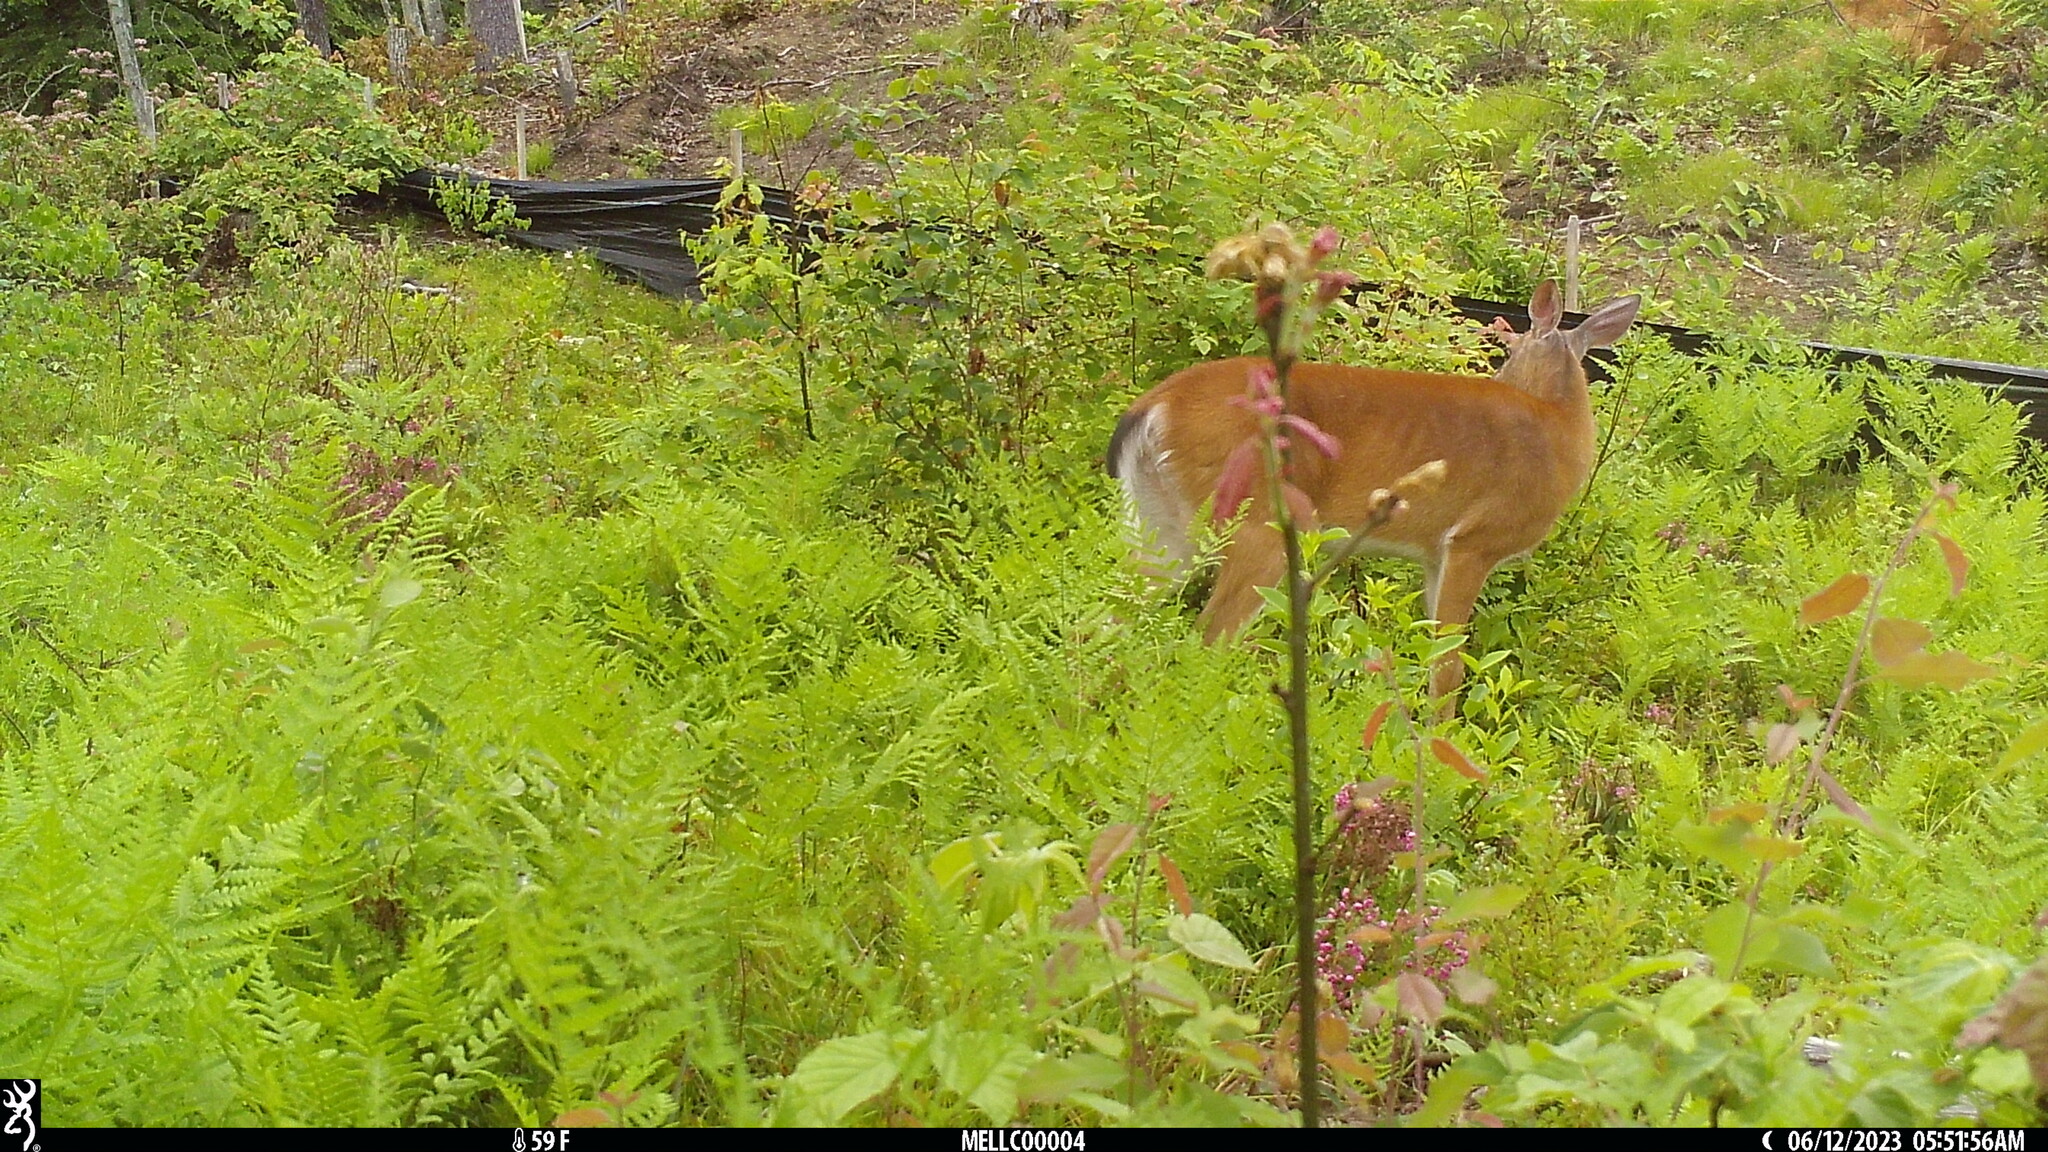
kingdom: Animalia
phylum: Chordata
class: Mammalia
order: Artiodactyla
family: Cervidae
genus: Odocoileus
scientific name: Odocoileus virginianus
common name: White-tailed deer
